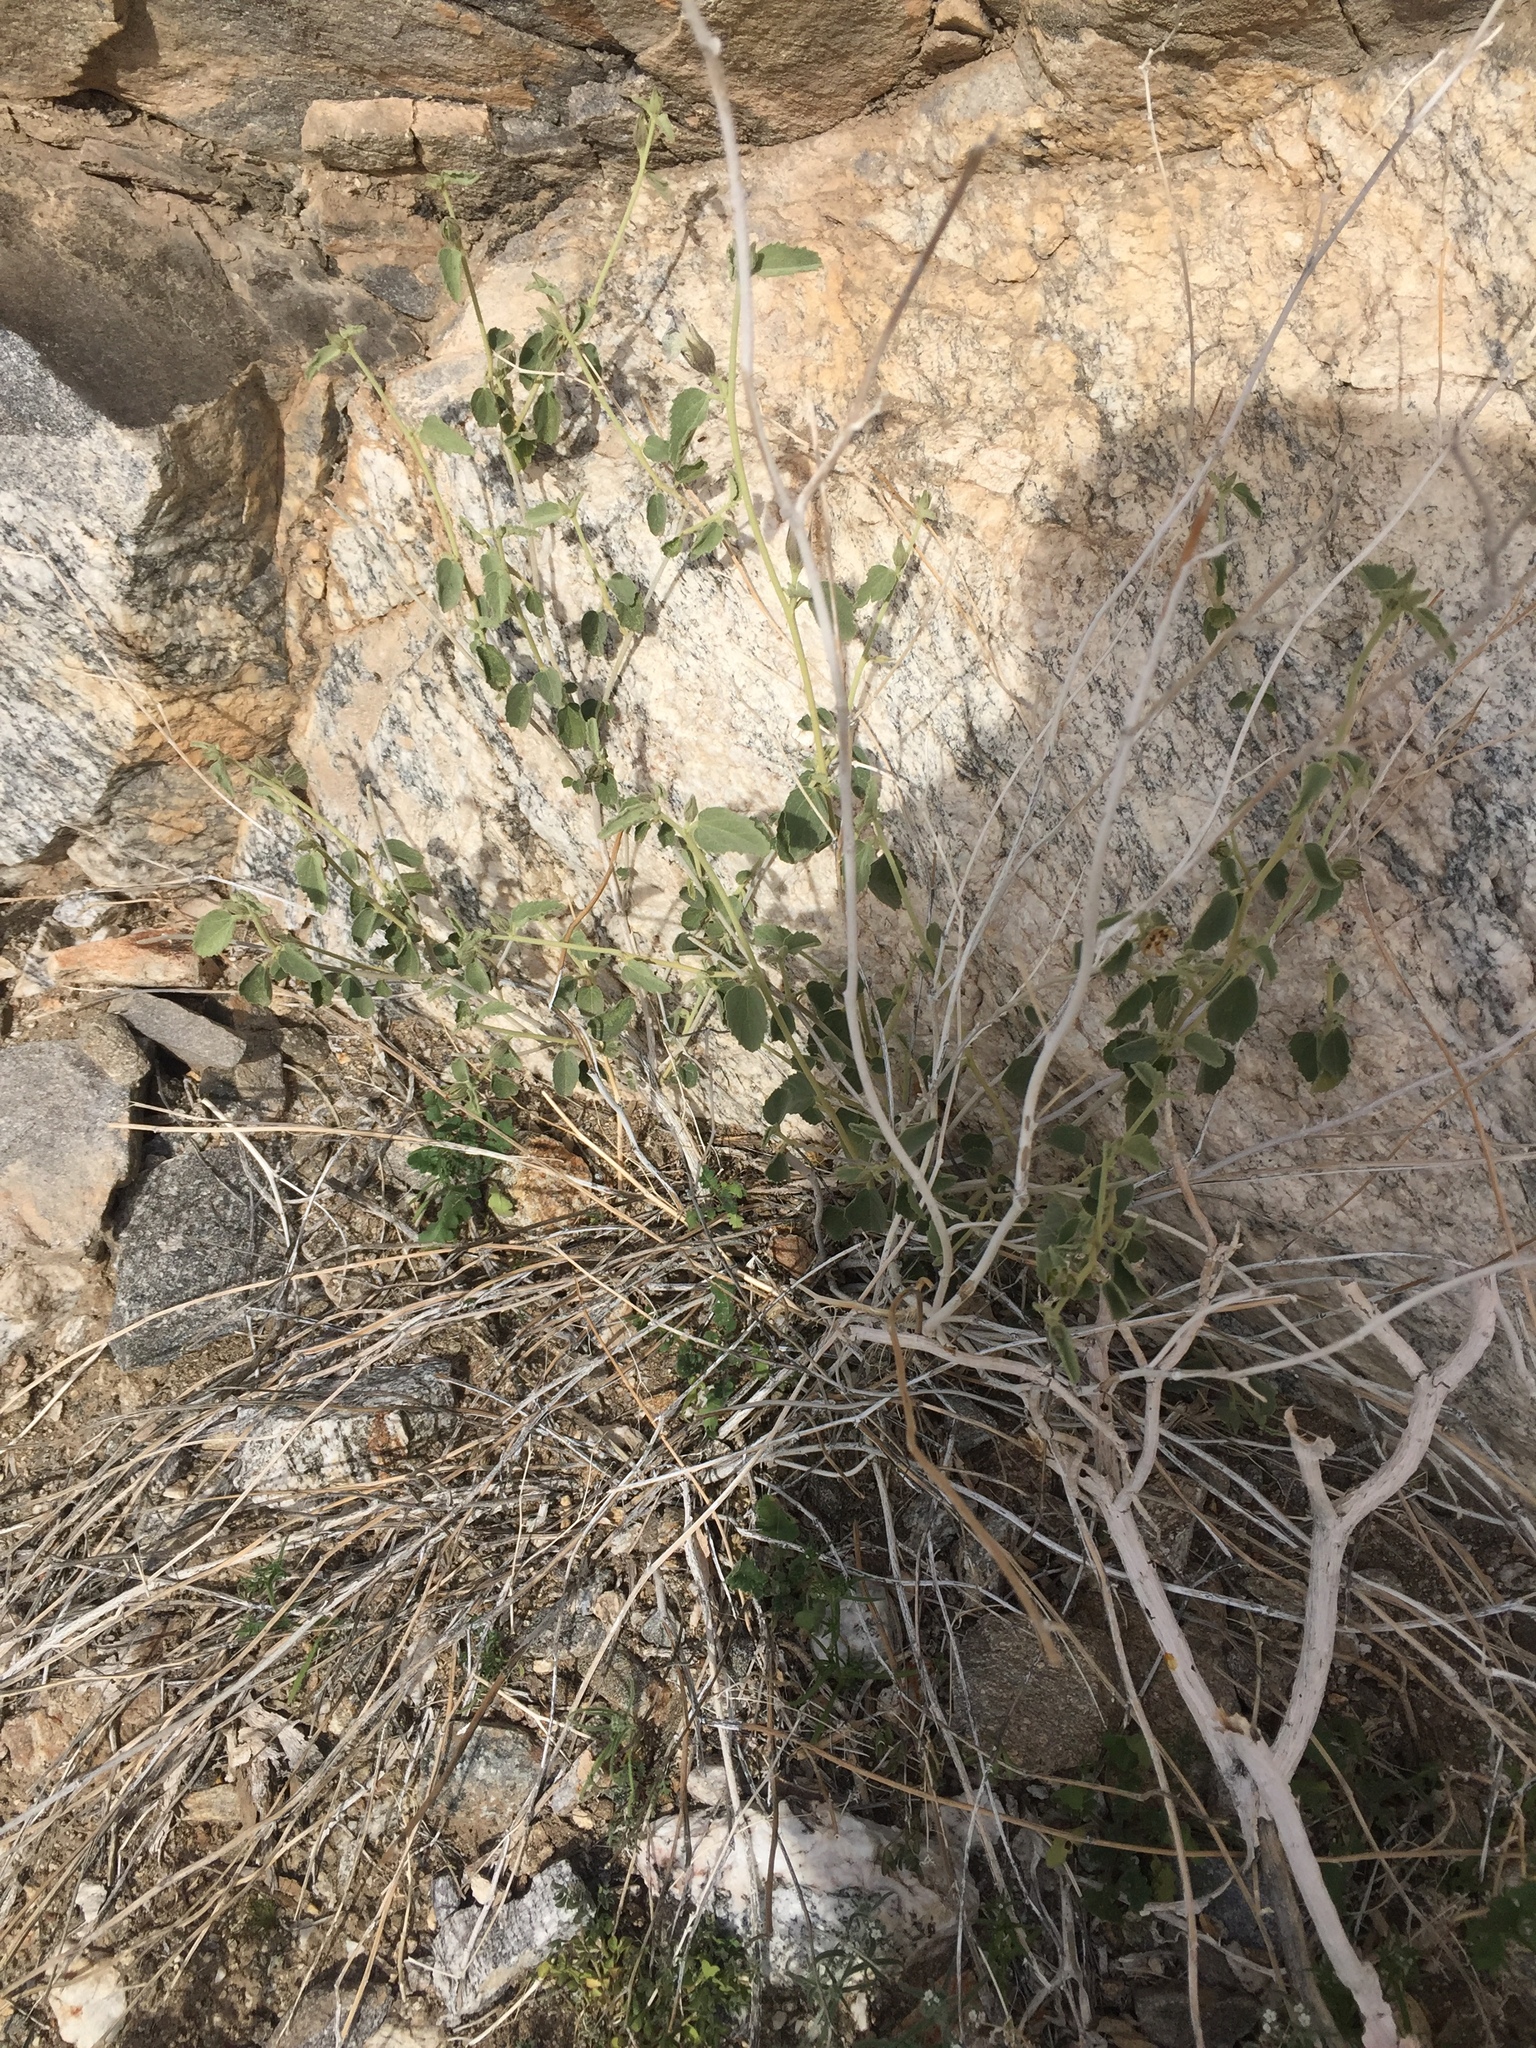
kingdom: Plantae
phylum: Tracheophyta
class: Magnoliopsida
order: Malvales
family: Malvaceae
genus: Hibiscus
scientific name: Hibiscus denudatus
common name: Paleface
